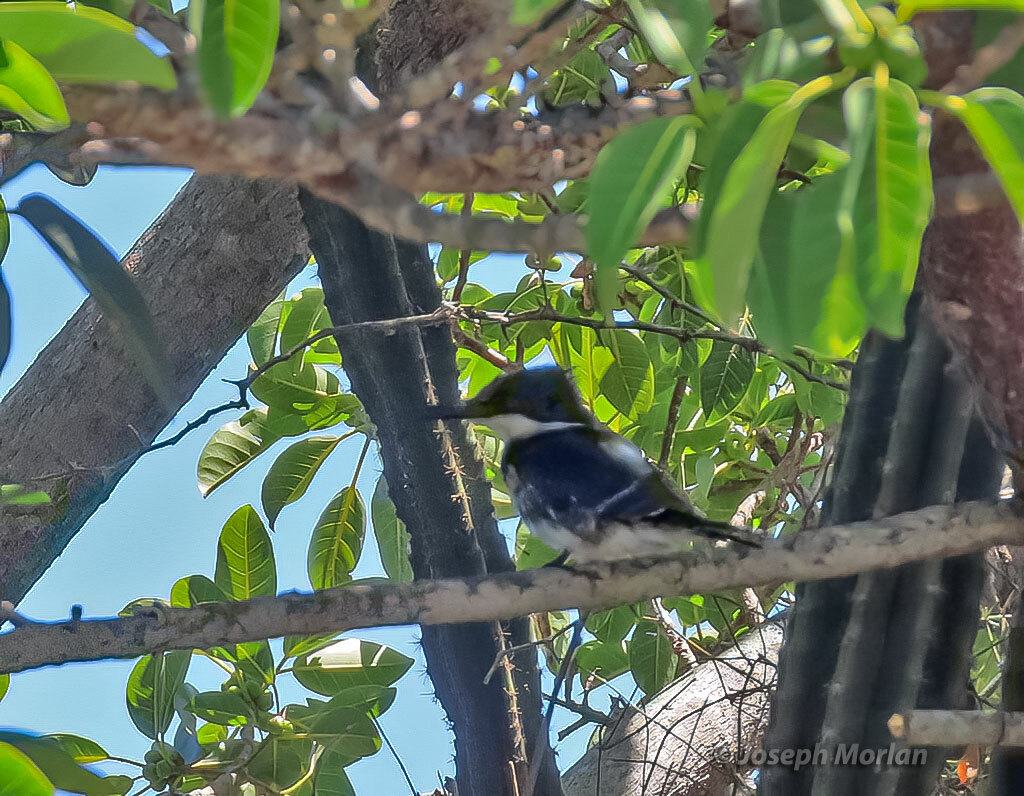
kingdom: Animalia
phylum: Chordata
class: Aves
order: Coraciiformes
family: Alcedinidae
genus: Chloroceryle
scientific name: Chloroceryle americana
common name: Green kingfisher
